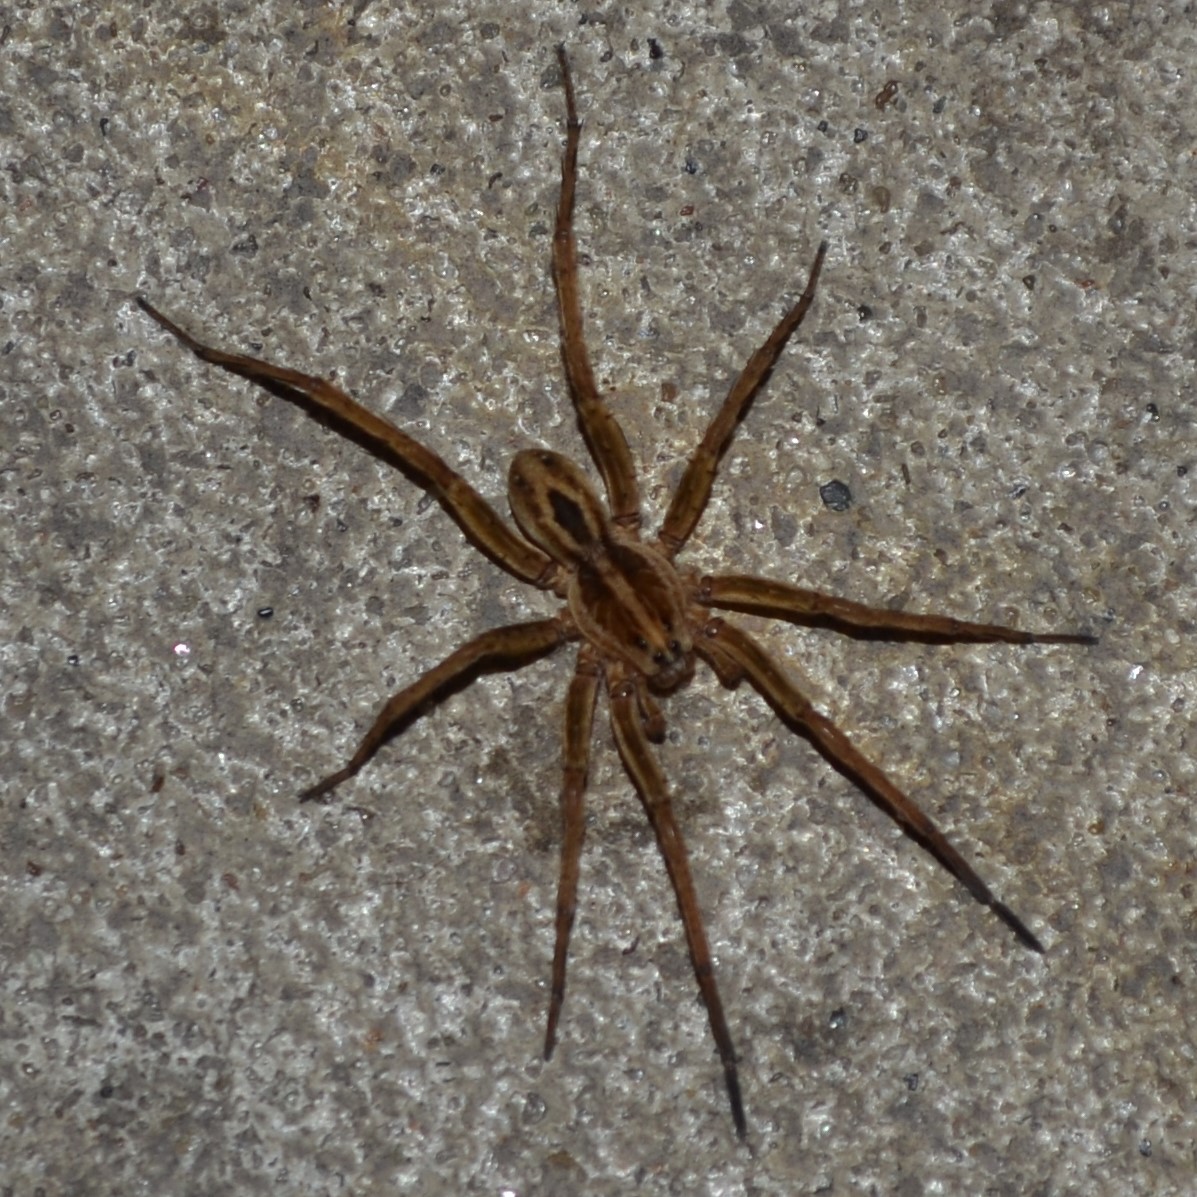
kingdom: Animalia
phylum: Arthropoda
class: Arachnida
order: Araneae
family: Lycosidae
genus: Tigrosa
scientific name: Tigrosa annexa
